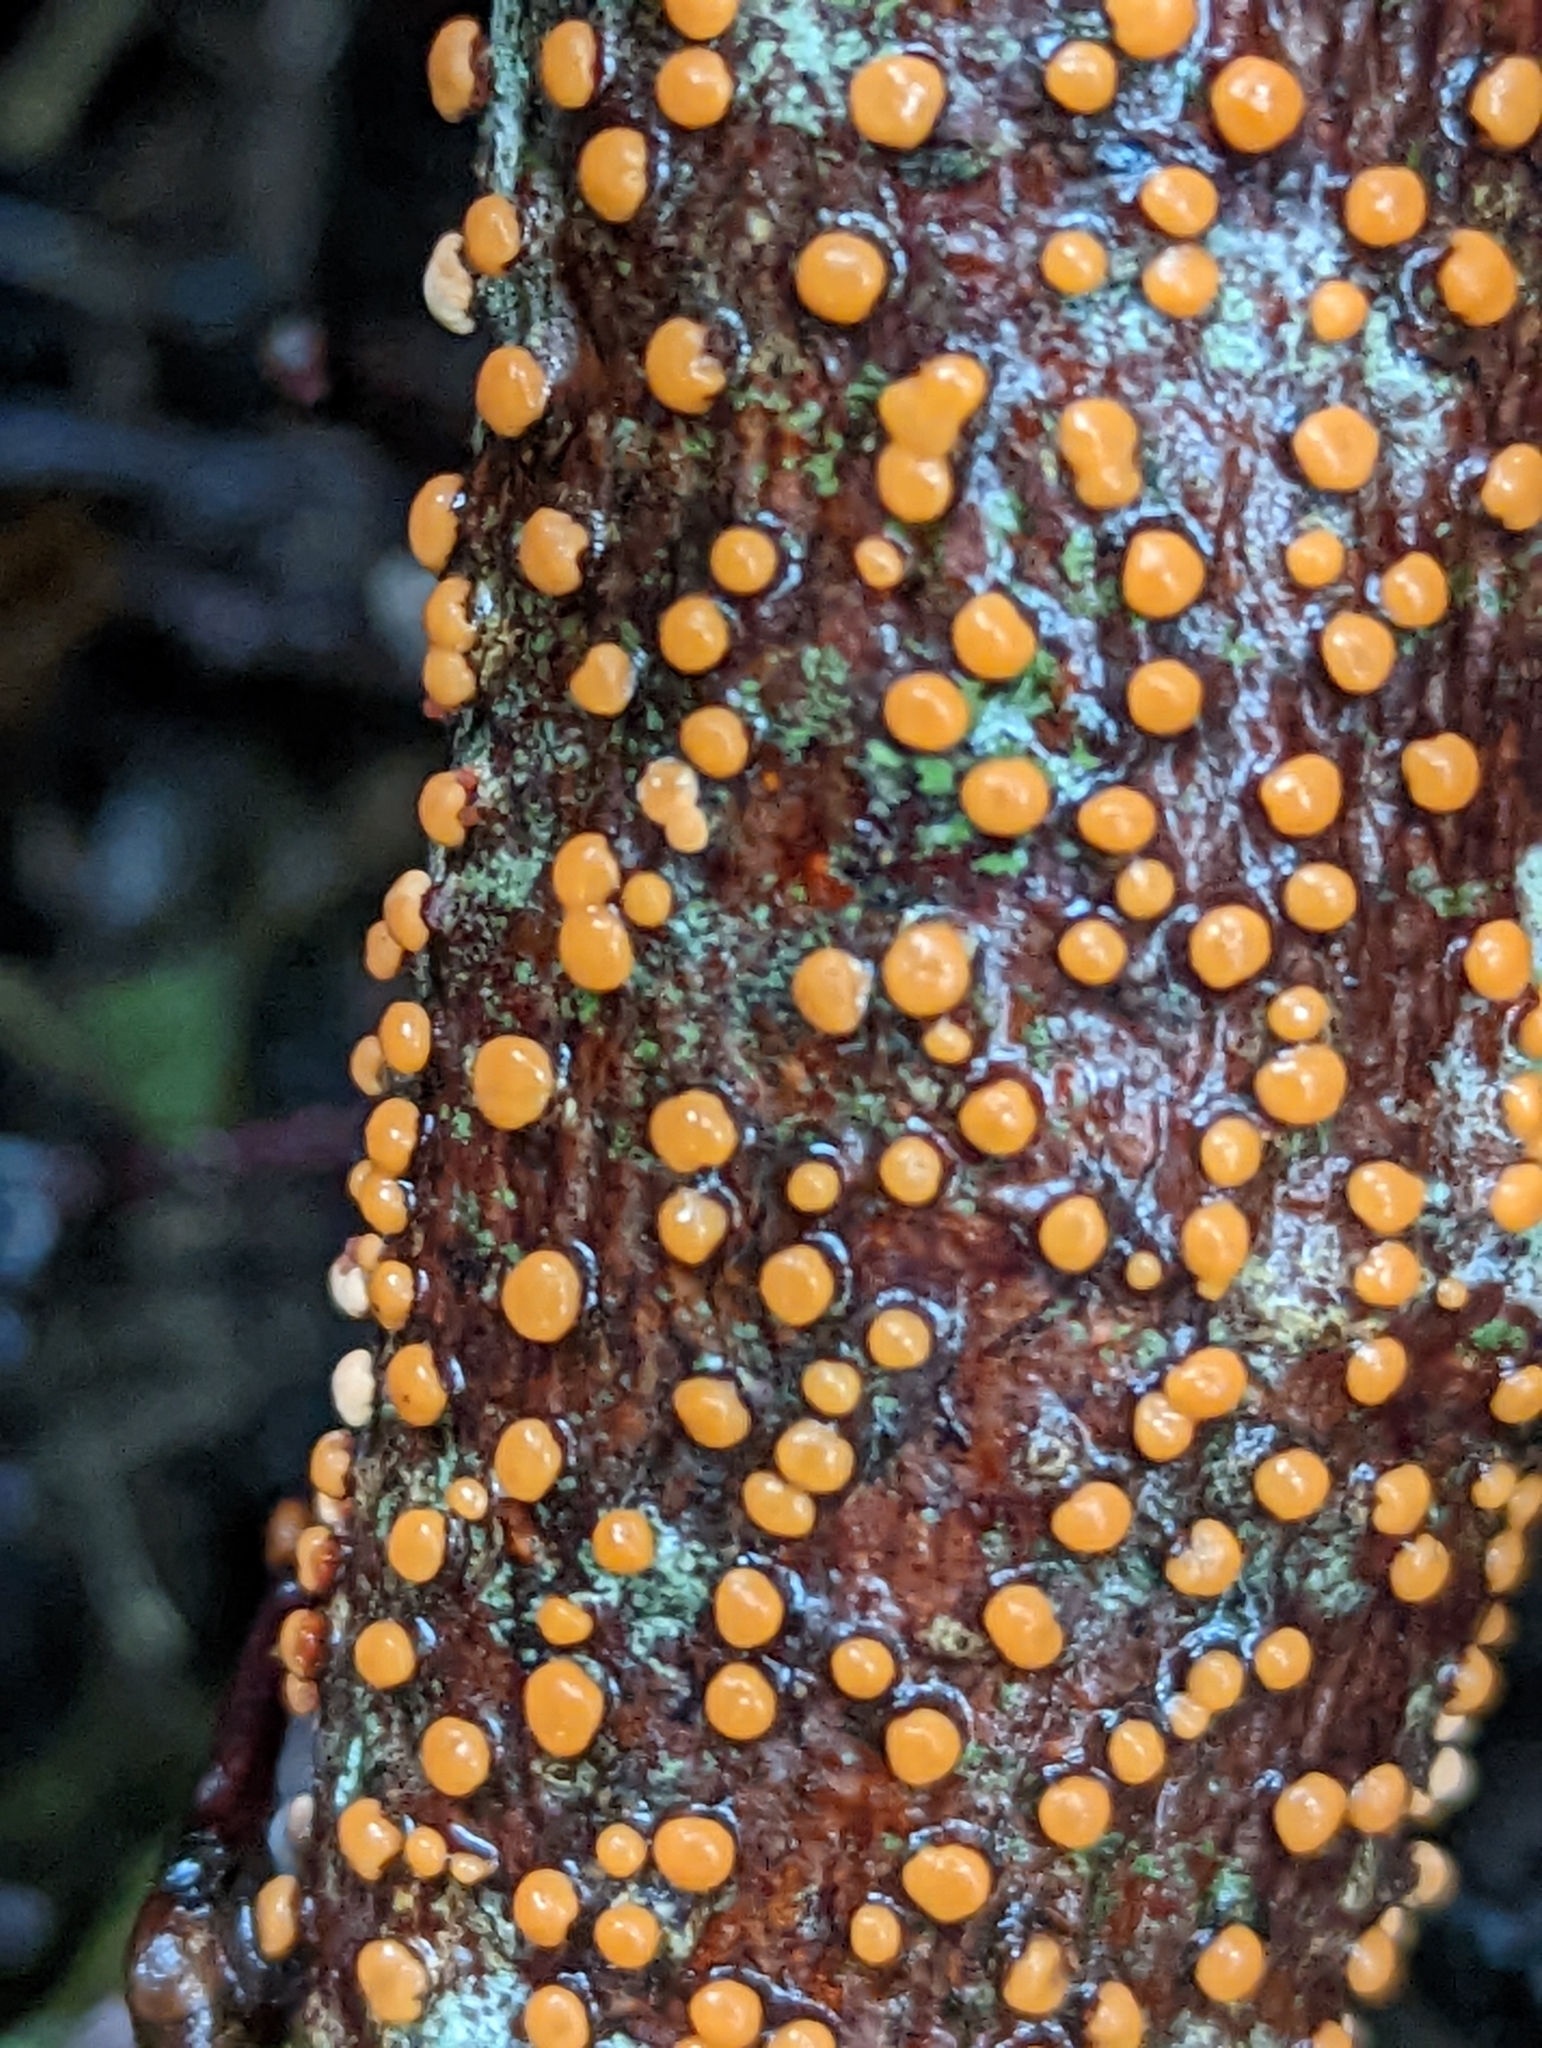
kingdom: Fungi
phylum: Ascomycota
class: Sordariomycetes
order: Hypocreales
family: Nectriaceae
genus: Nectria
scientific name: Nectria cinnabarina
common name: Coral spot
